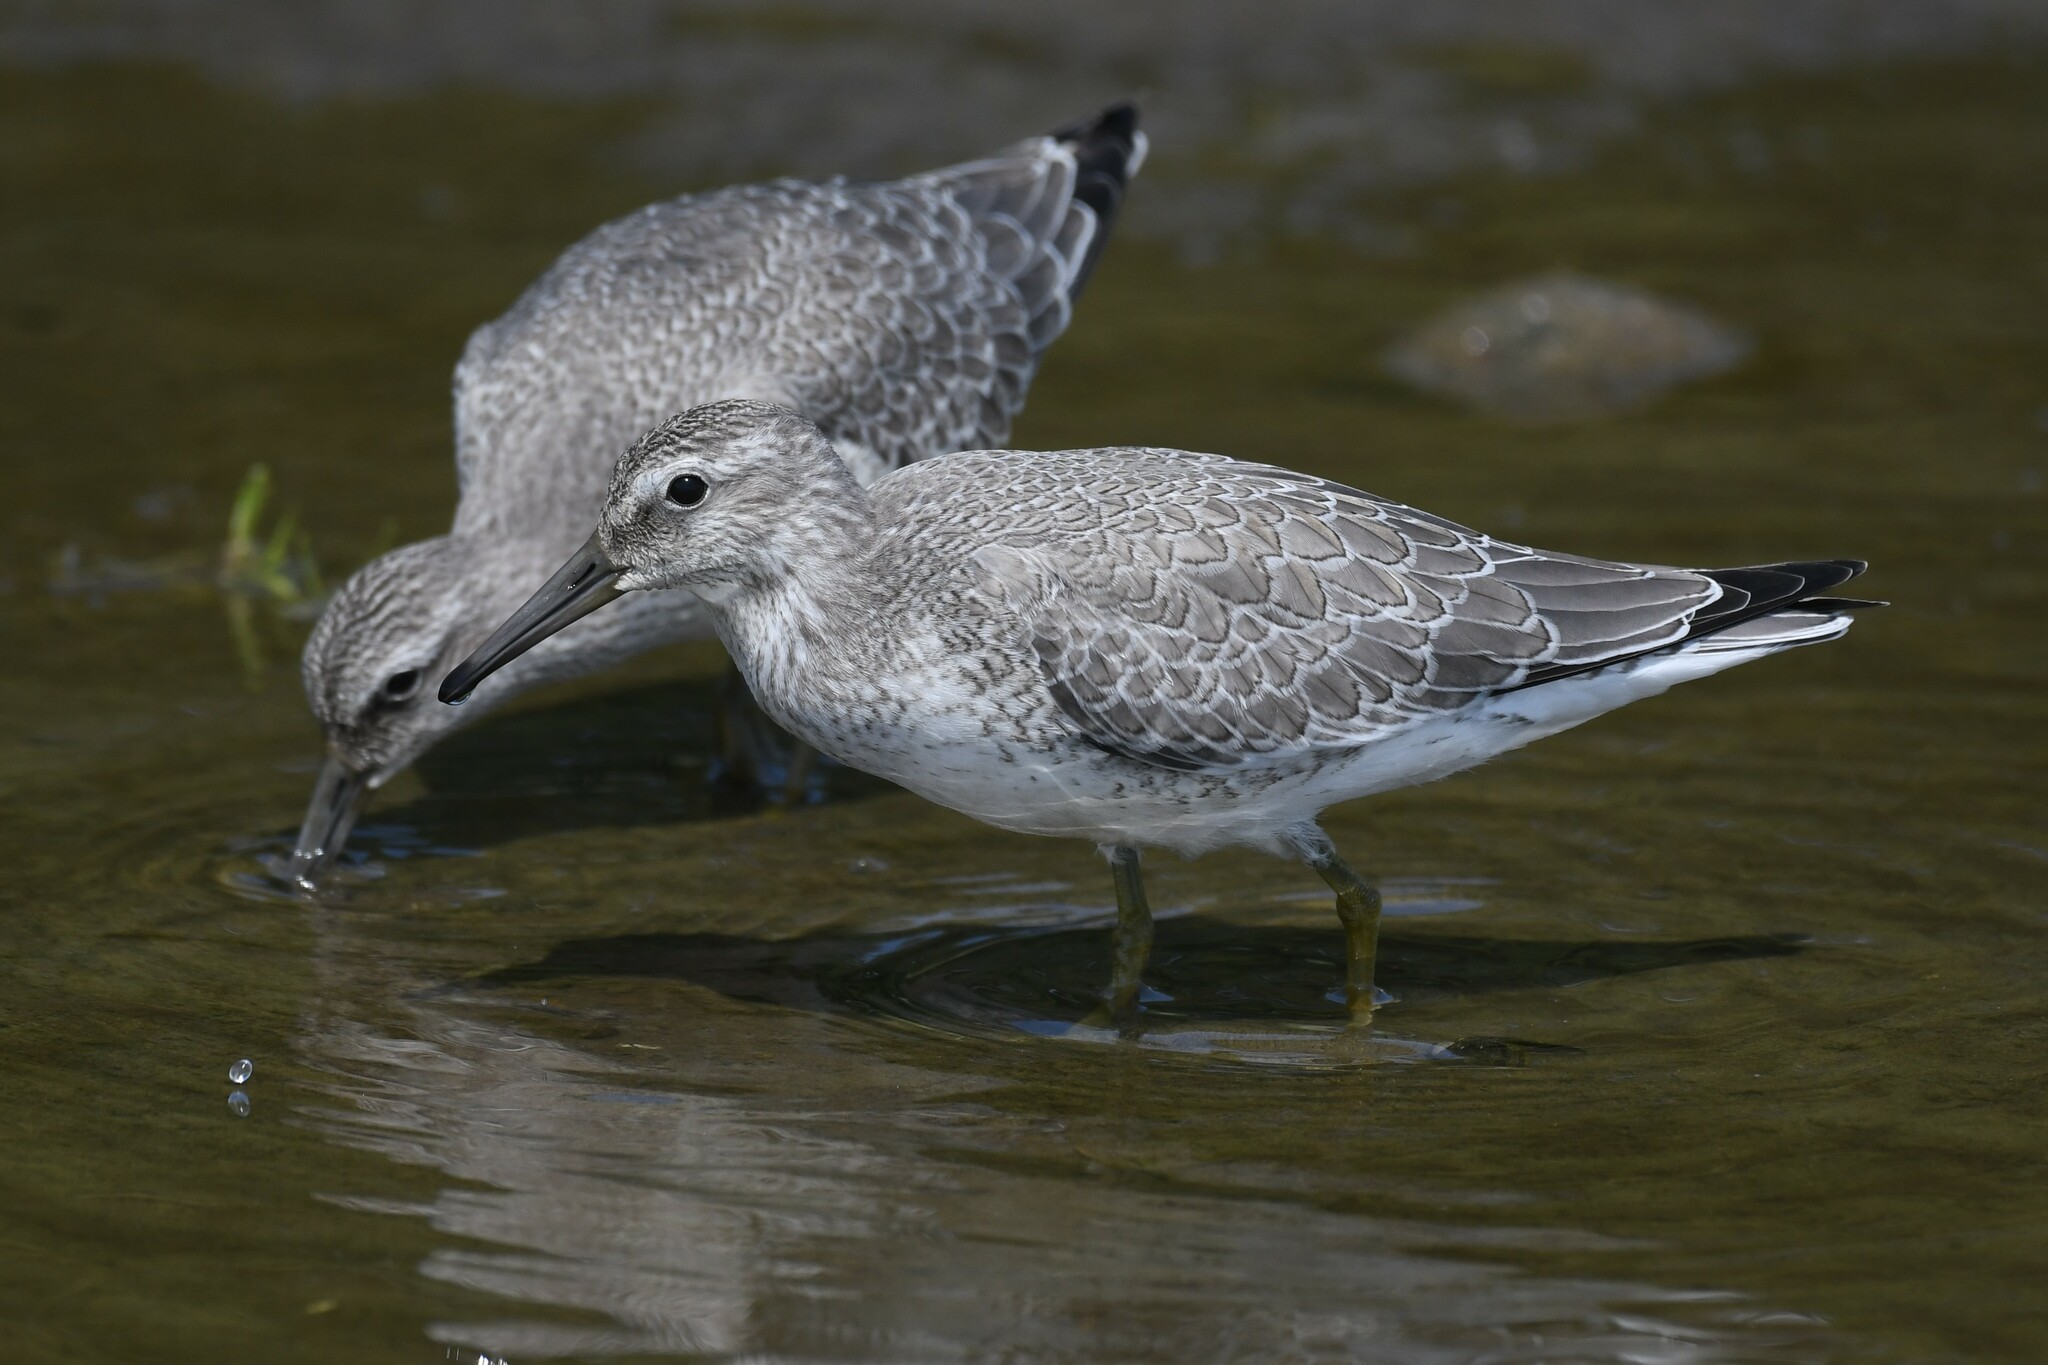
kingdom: Animalia
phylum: Chordata
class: Aves
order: Charadriiformes
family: Scolopacidae
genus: Calidris
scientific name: Calidris canutus
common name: Red knot
